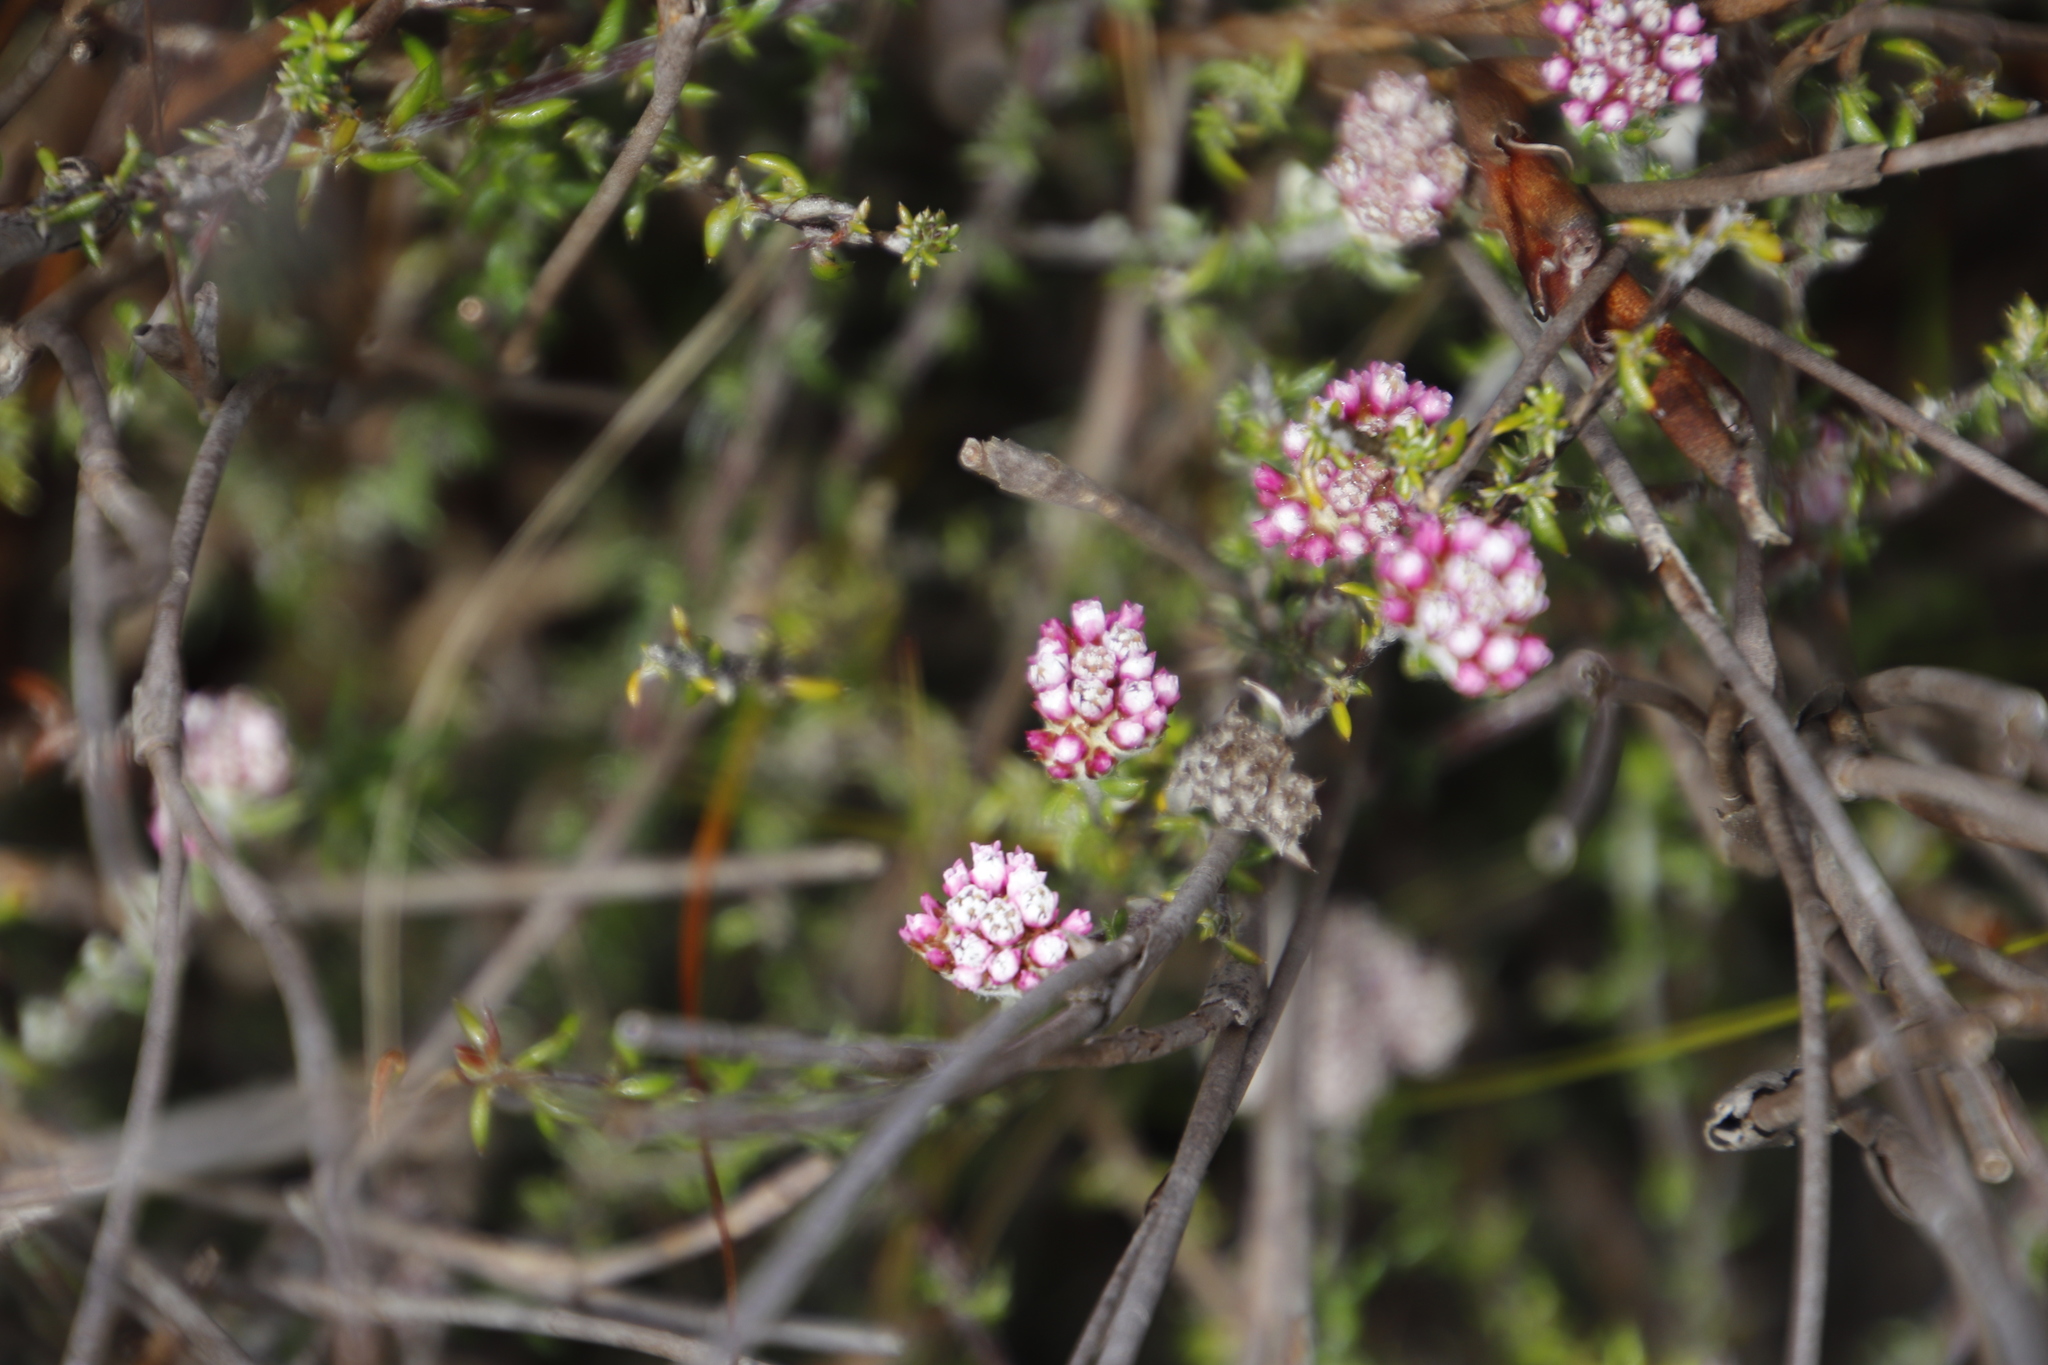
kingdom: Plantae
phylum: Tracheophyta
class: Magnoliopsida
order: Asterales
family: Asteraceae
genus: Metalasia
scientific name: Metalasia divergens
